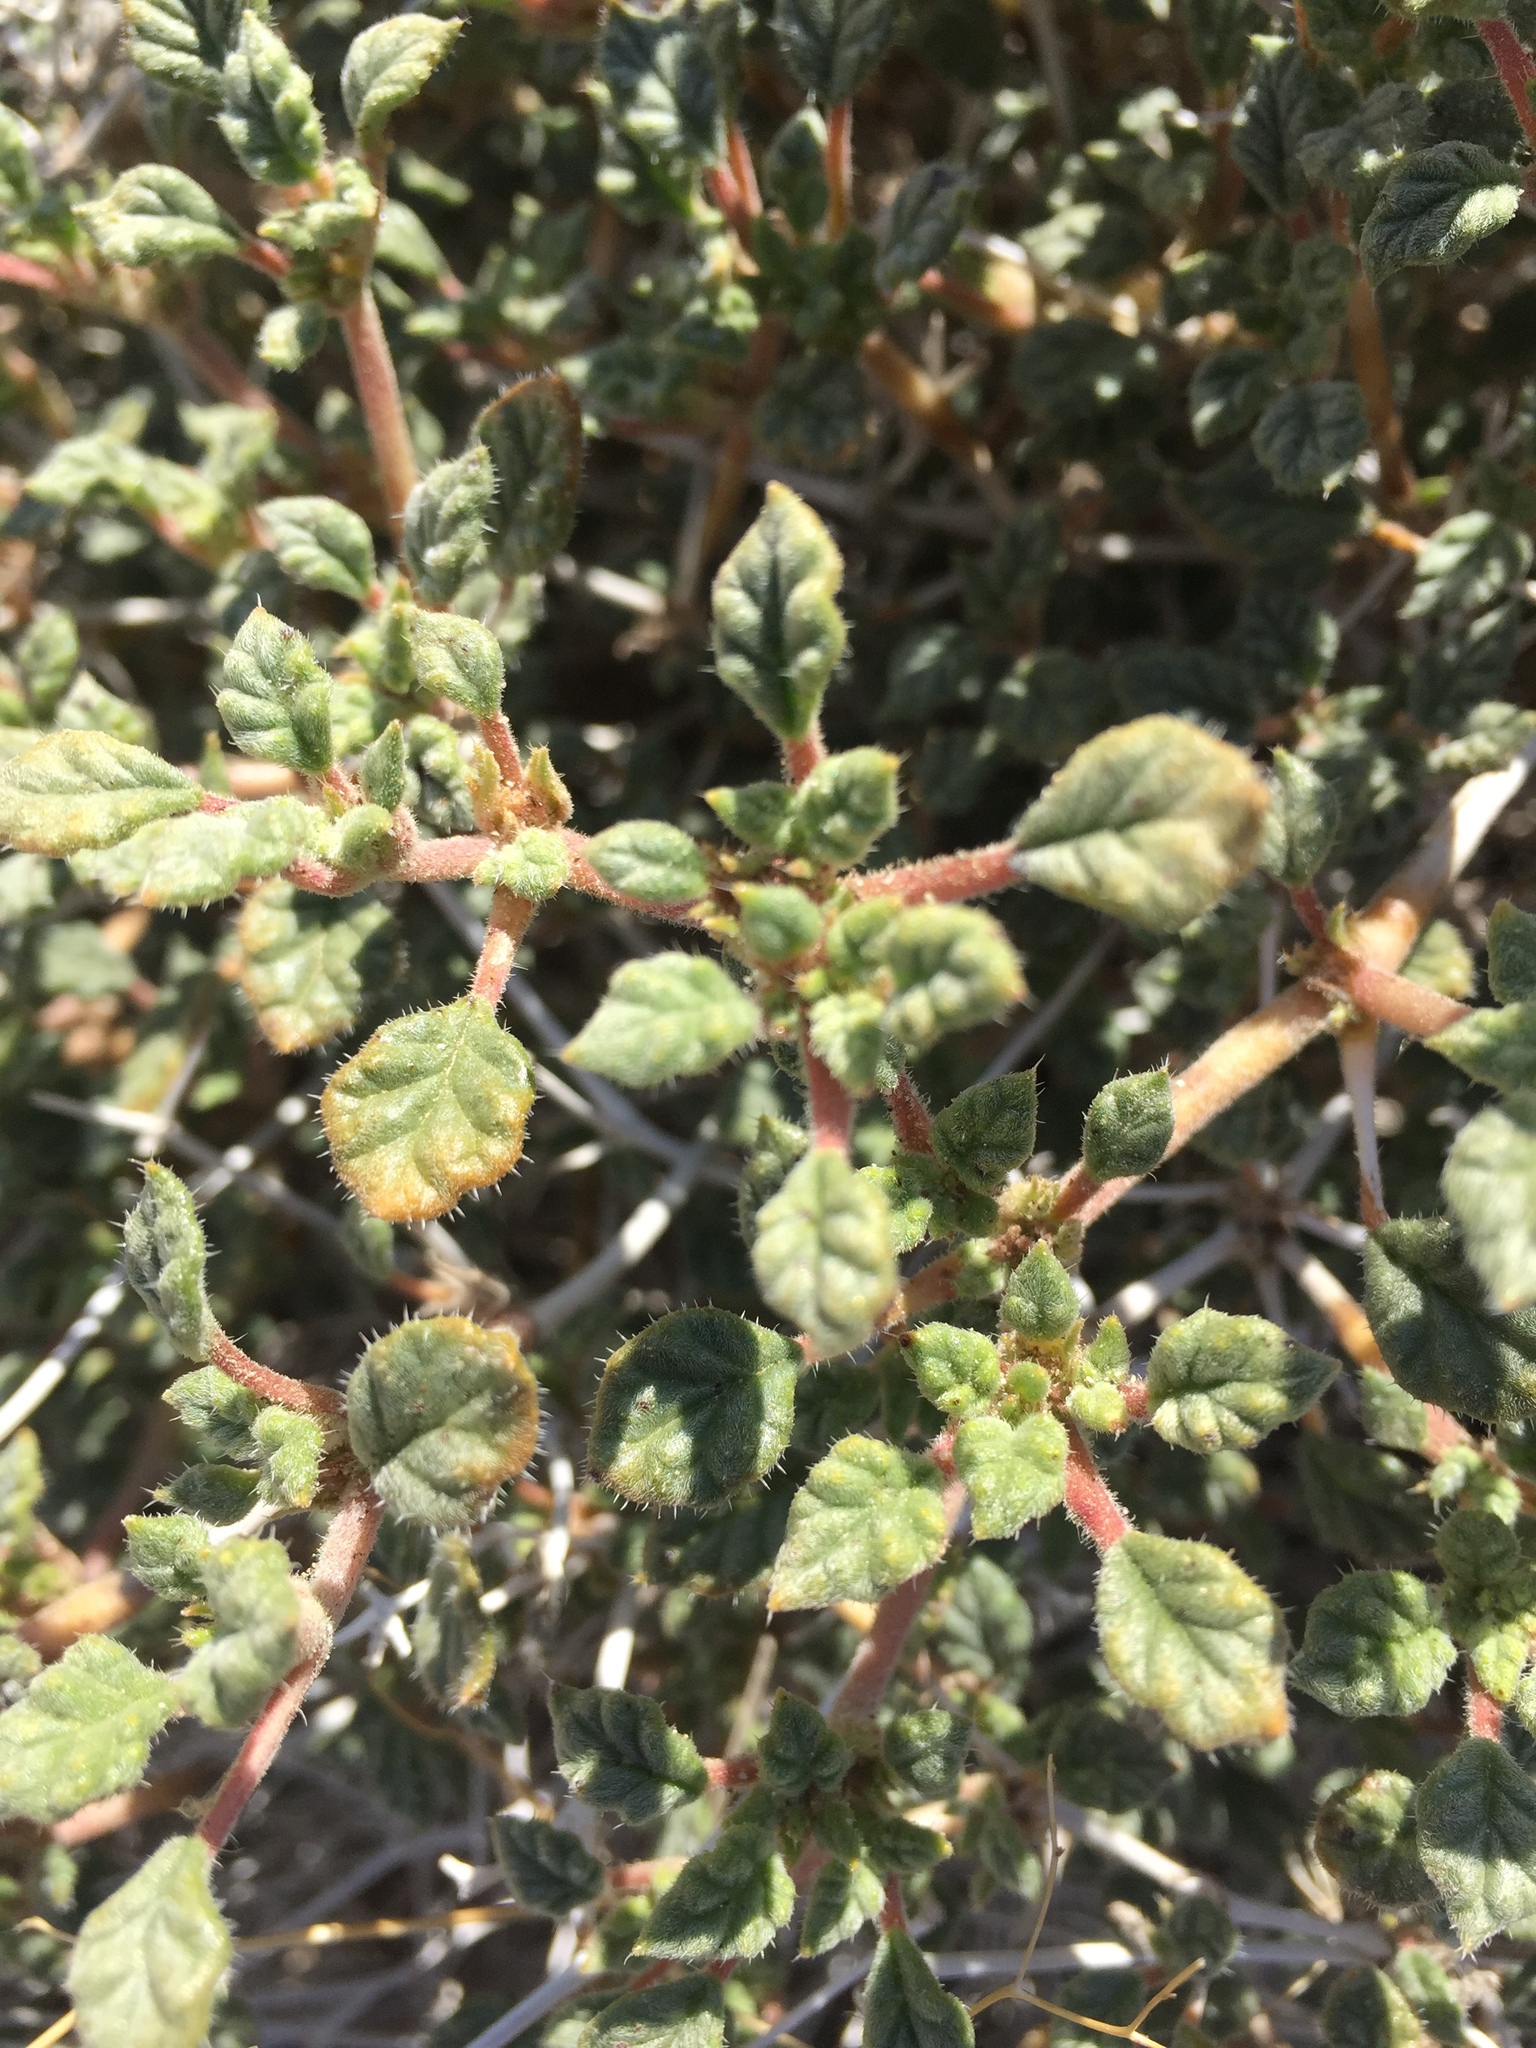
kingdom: Plantae
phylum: Tracheophyta
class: Magnoliopsida
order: Boraginales
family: Ehretiaceae
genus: Tiquilia
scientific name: Tiquilia palmeri
